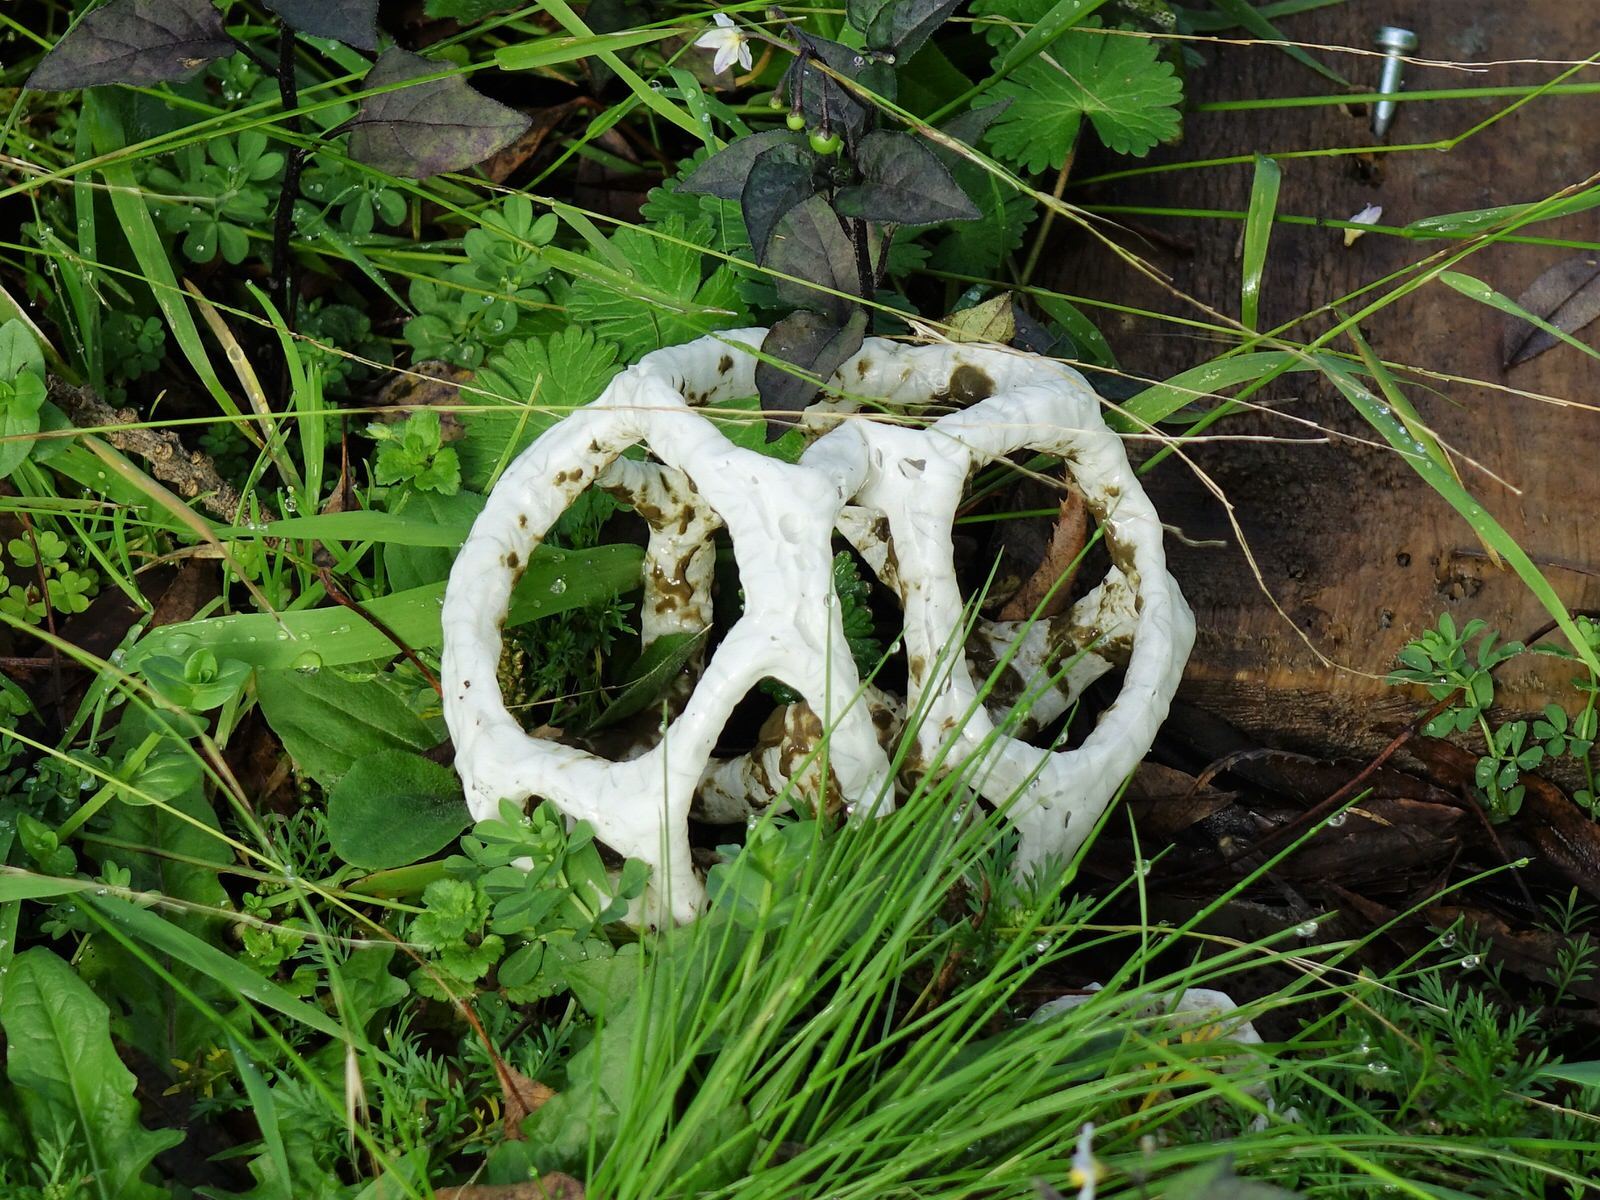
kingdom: Fungi
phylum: Basidiomycota
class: Agaricomycetes
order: Phallales
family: Phallaceae
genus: Ileodictyon
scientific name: Ileodictyon cibarium
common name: Basket fungus
